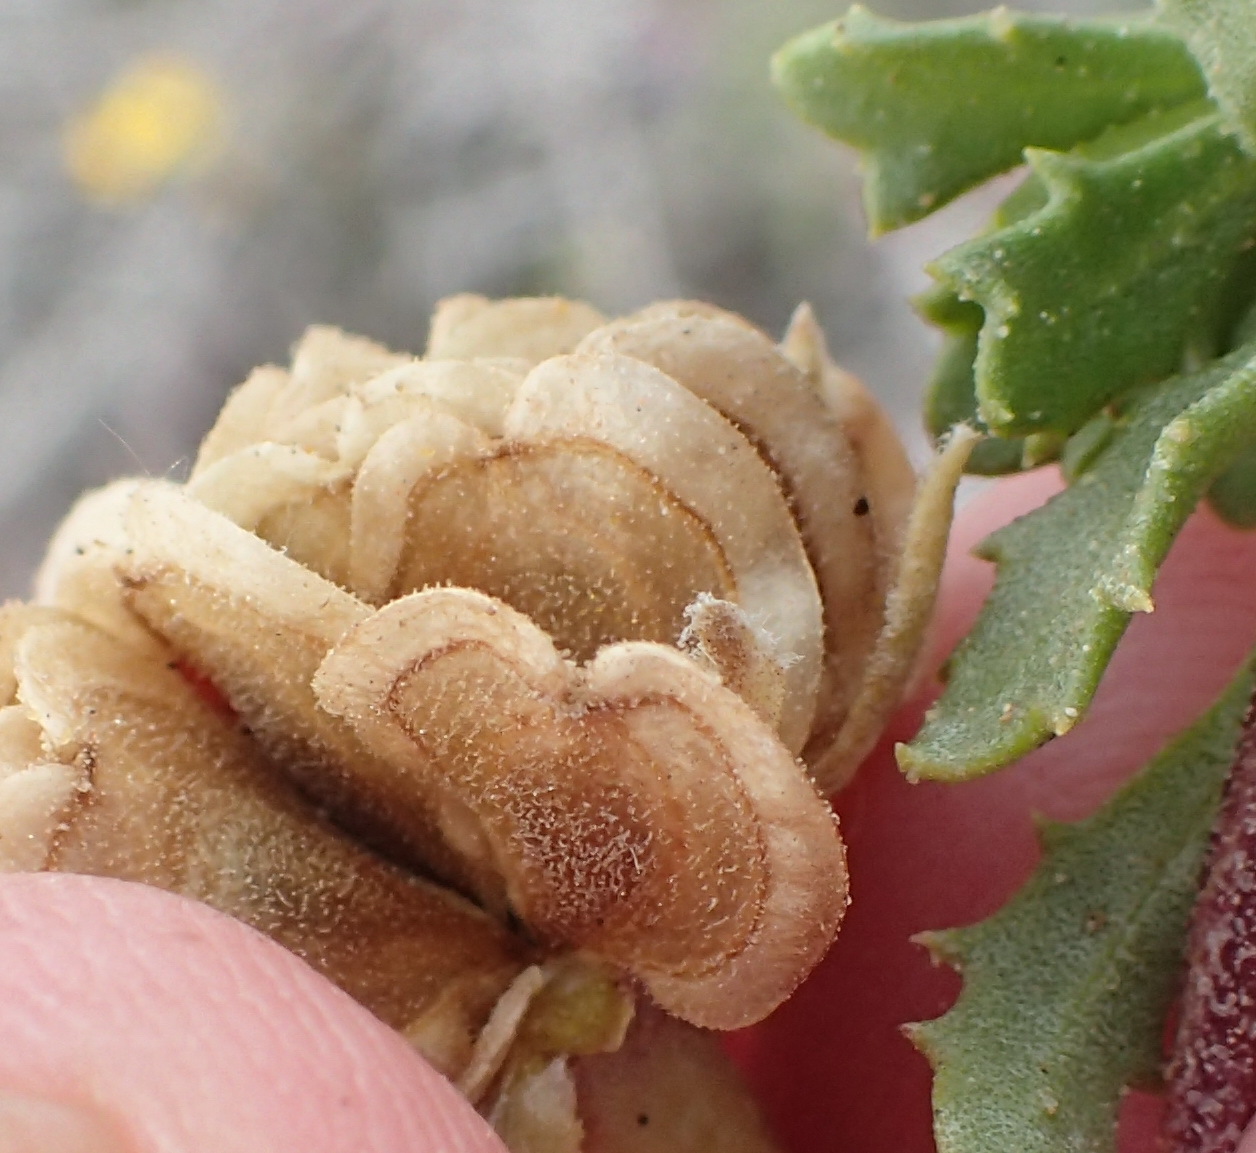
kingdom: Plantae
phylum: Tracheophyta
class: Magnoliopsida
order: Asterales
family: Asteraceae
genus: Dimorphotheca
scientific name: Dimorphotheca cuneata
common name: Daisy
